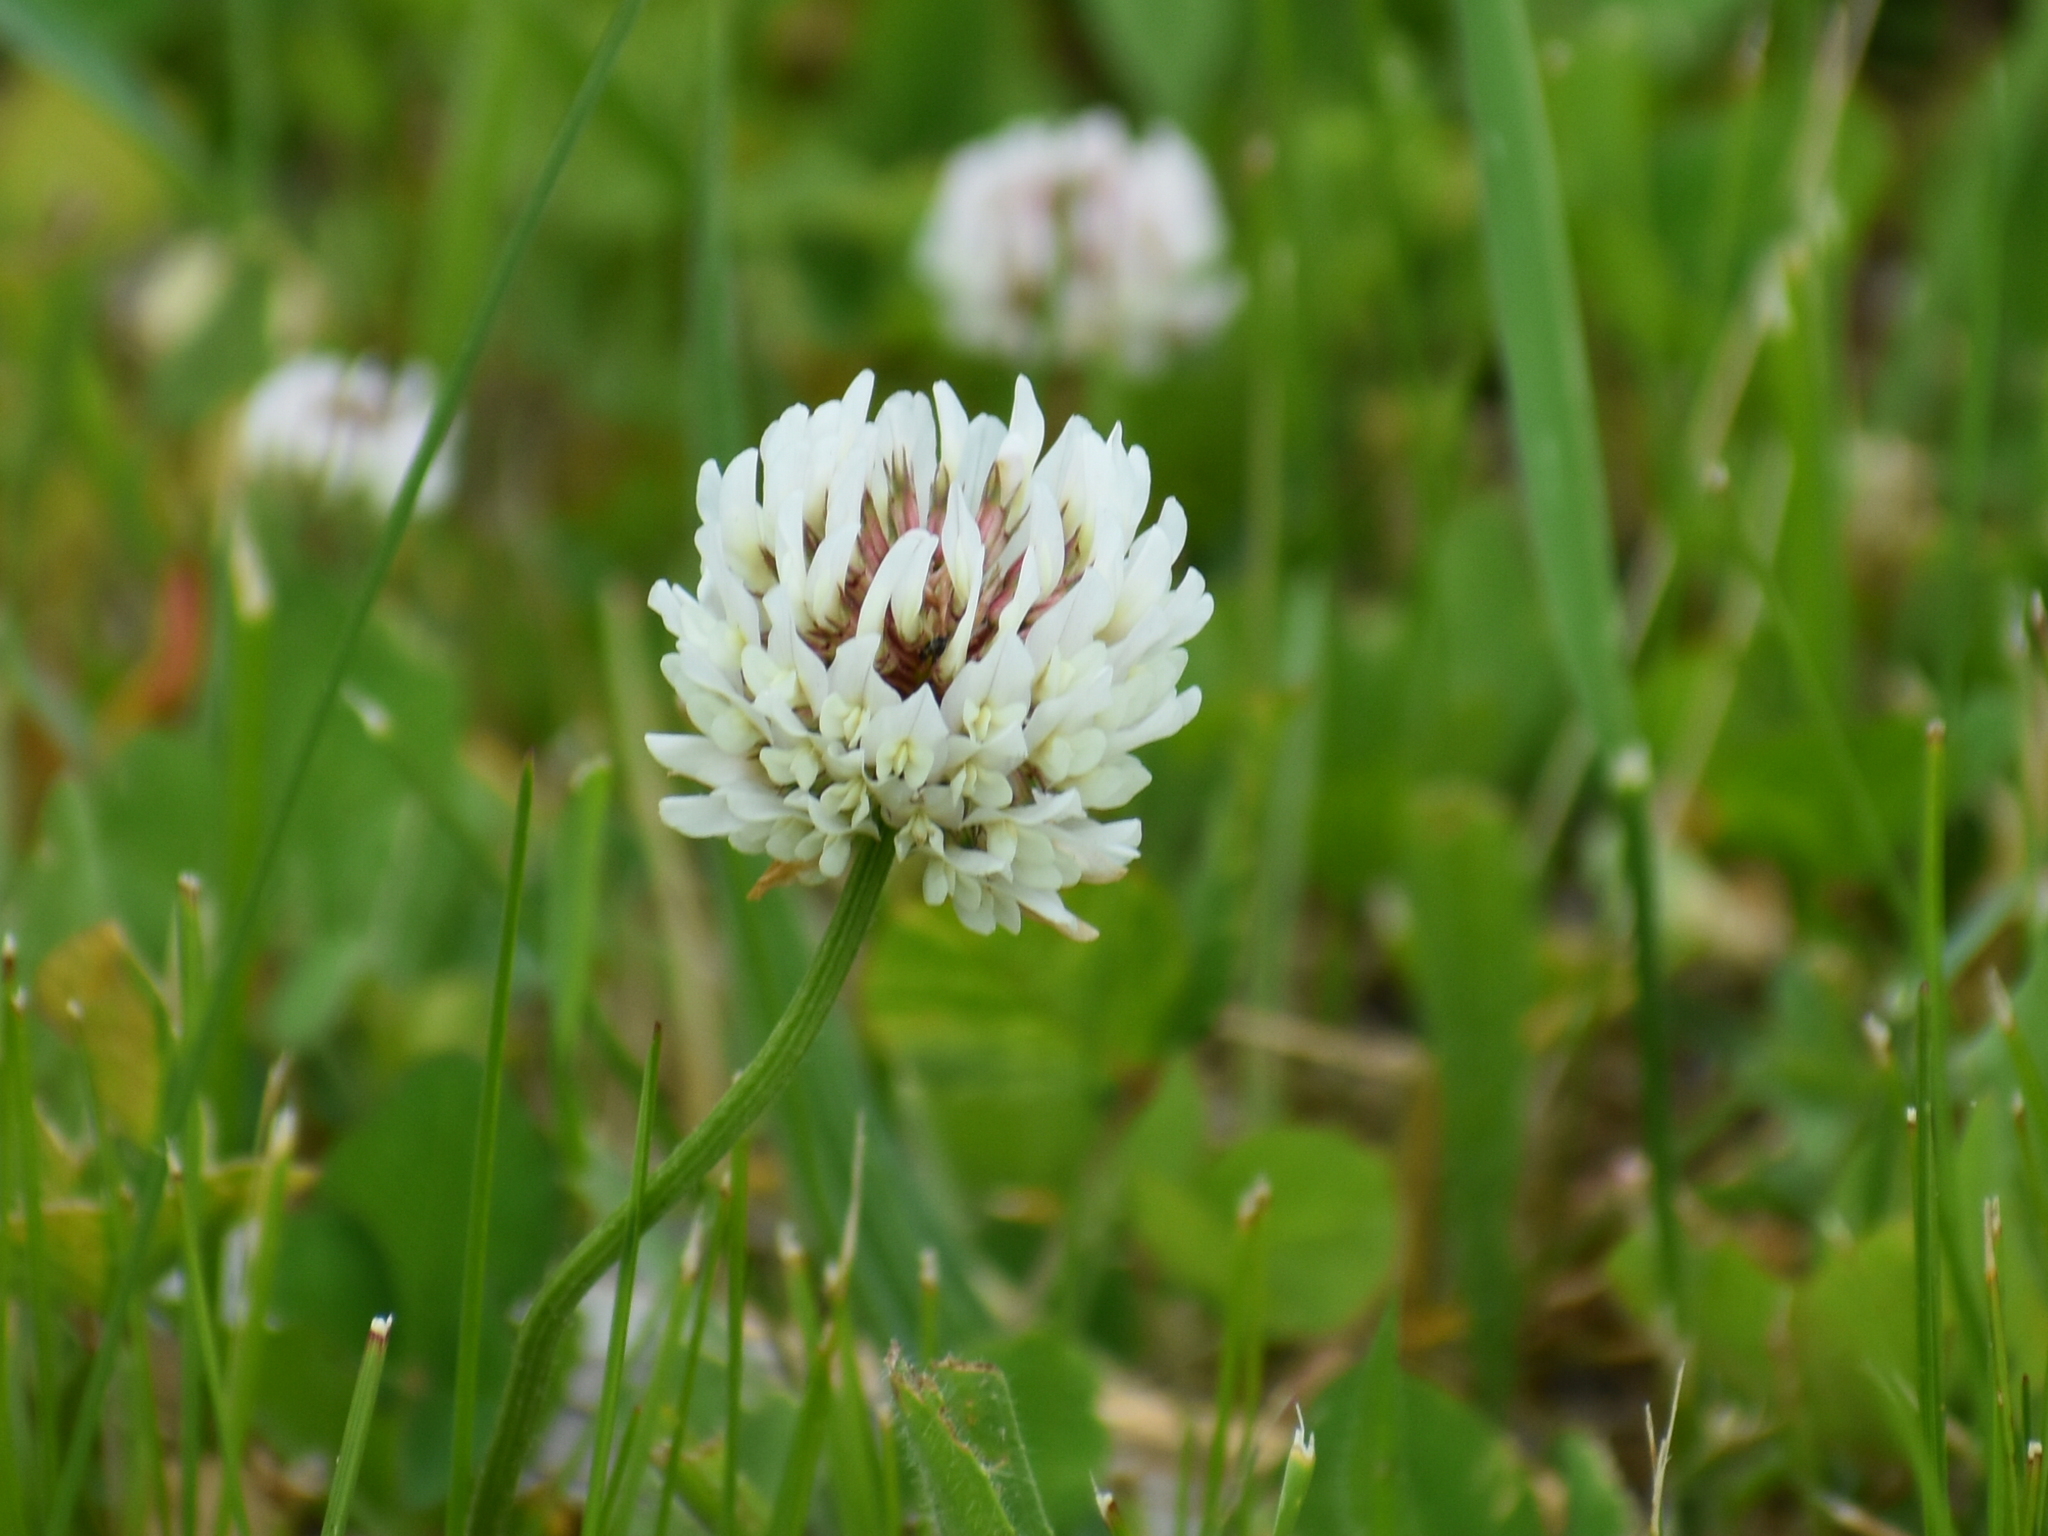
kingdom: Plantae
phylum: Tracheophyta
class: Magnoliopsida
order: Fabales
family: Fabaceae
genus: Trifolium
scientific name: Trifolium repens
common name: White clover
